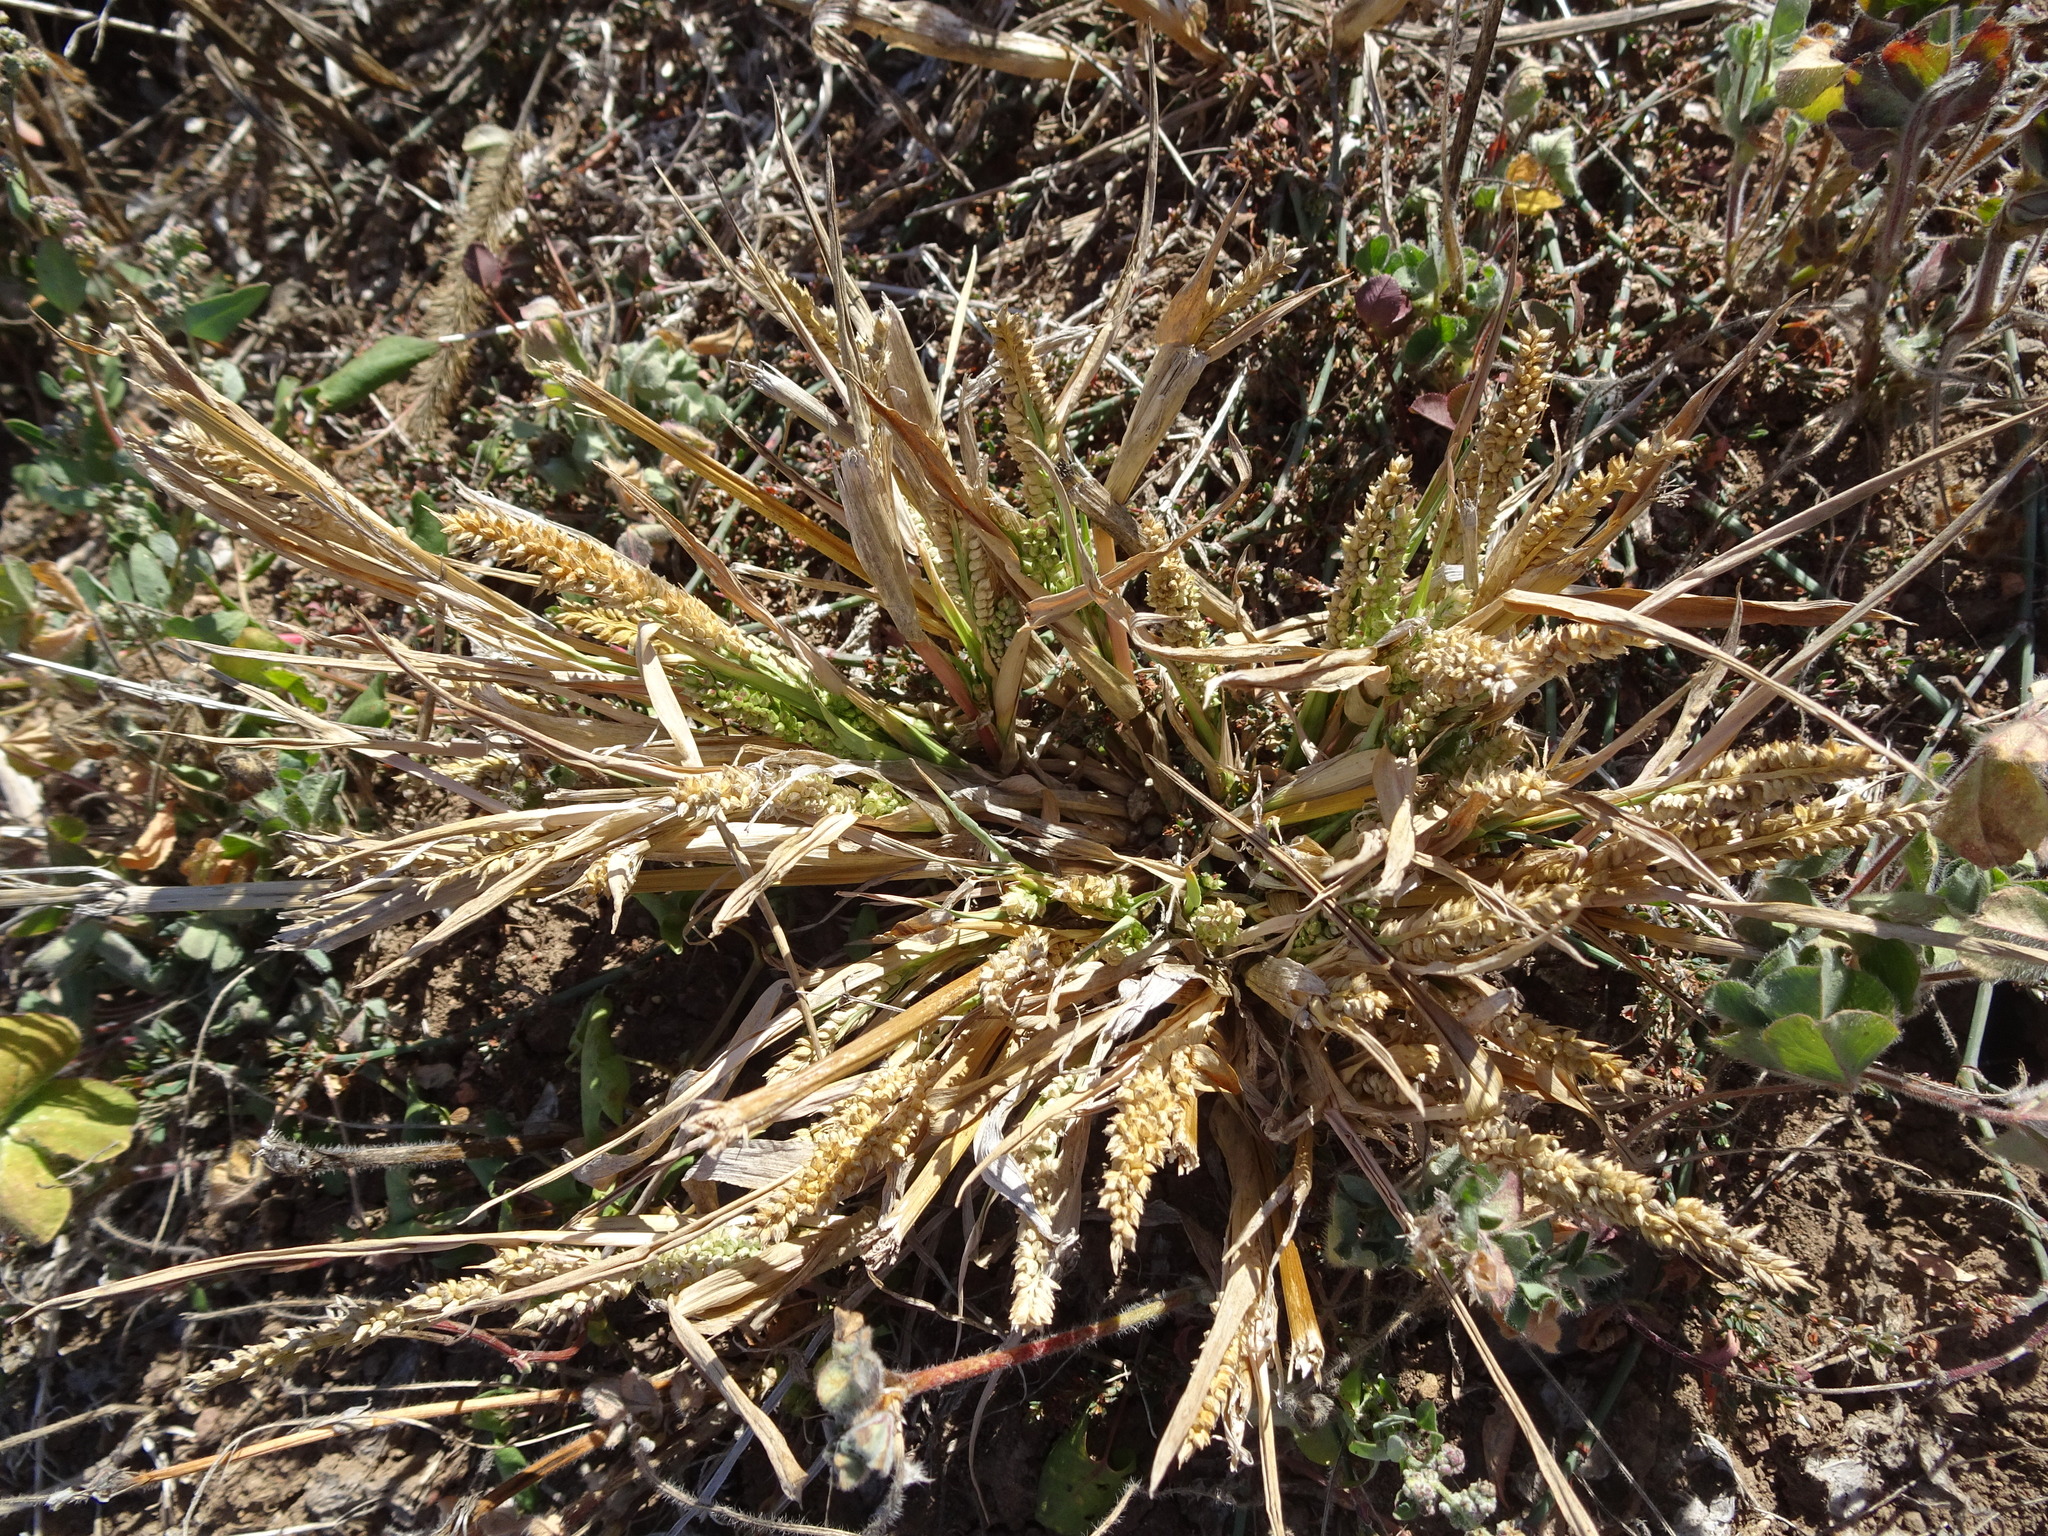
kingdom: Plantae
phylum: Tracheophyta
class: Liliopsida
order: Poales
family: Poaceae
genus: Echinochloa
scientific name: Echinochloa crus-galli
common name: Cockspur
